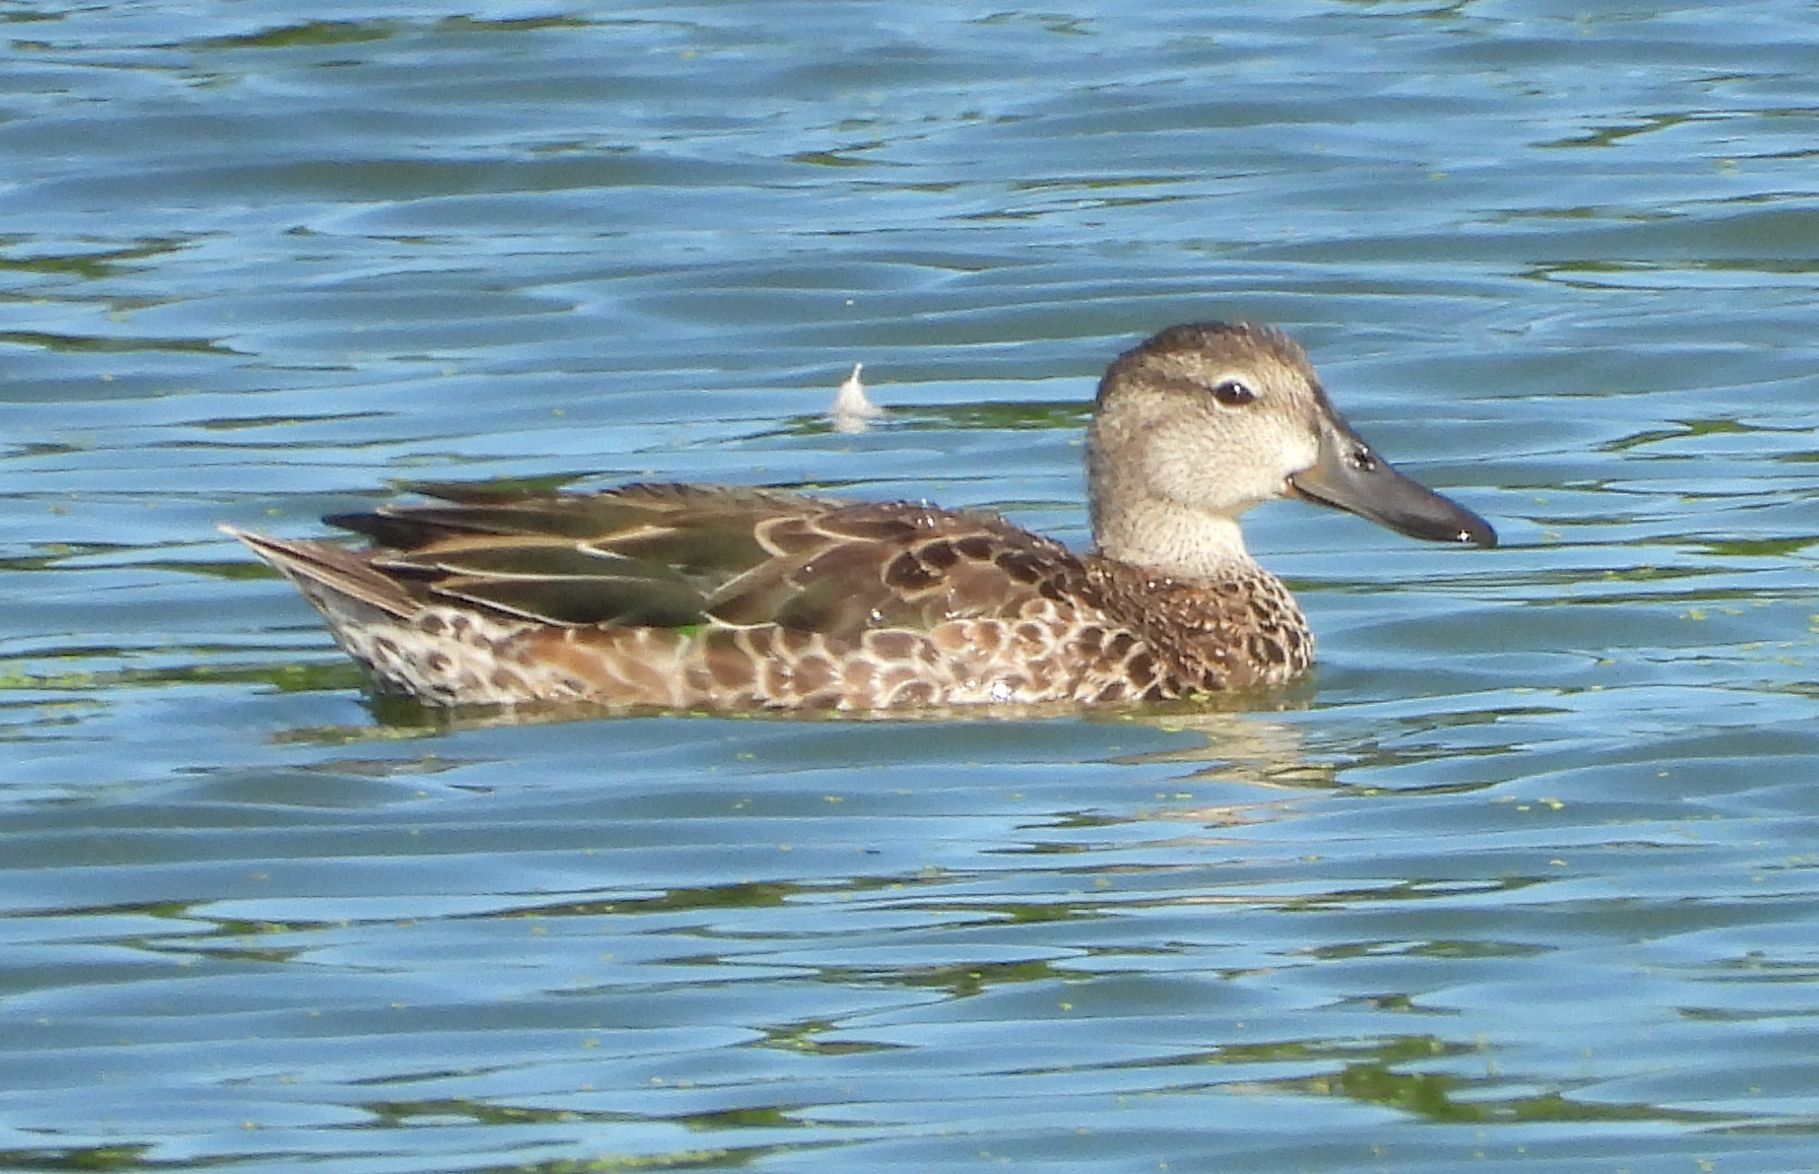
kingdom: Animalia
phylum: Chordata
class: Aves
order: Anseriformes
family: Anatidae
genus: Spatula
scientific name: Spatula discors
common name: Blue-winged teal
